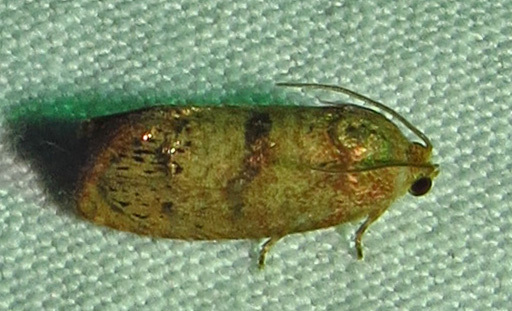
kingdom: Animalia
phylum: Arthropoda
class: Insecta
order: Lepidoptera
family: Tortricidae
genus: Cydia
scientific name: Cydia latiferreana
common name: Filbertworm moth
